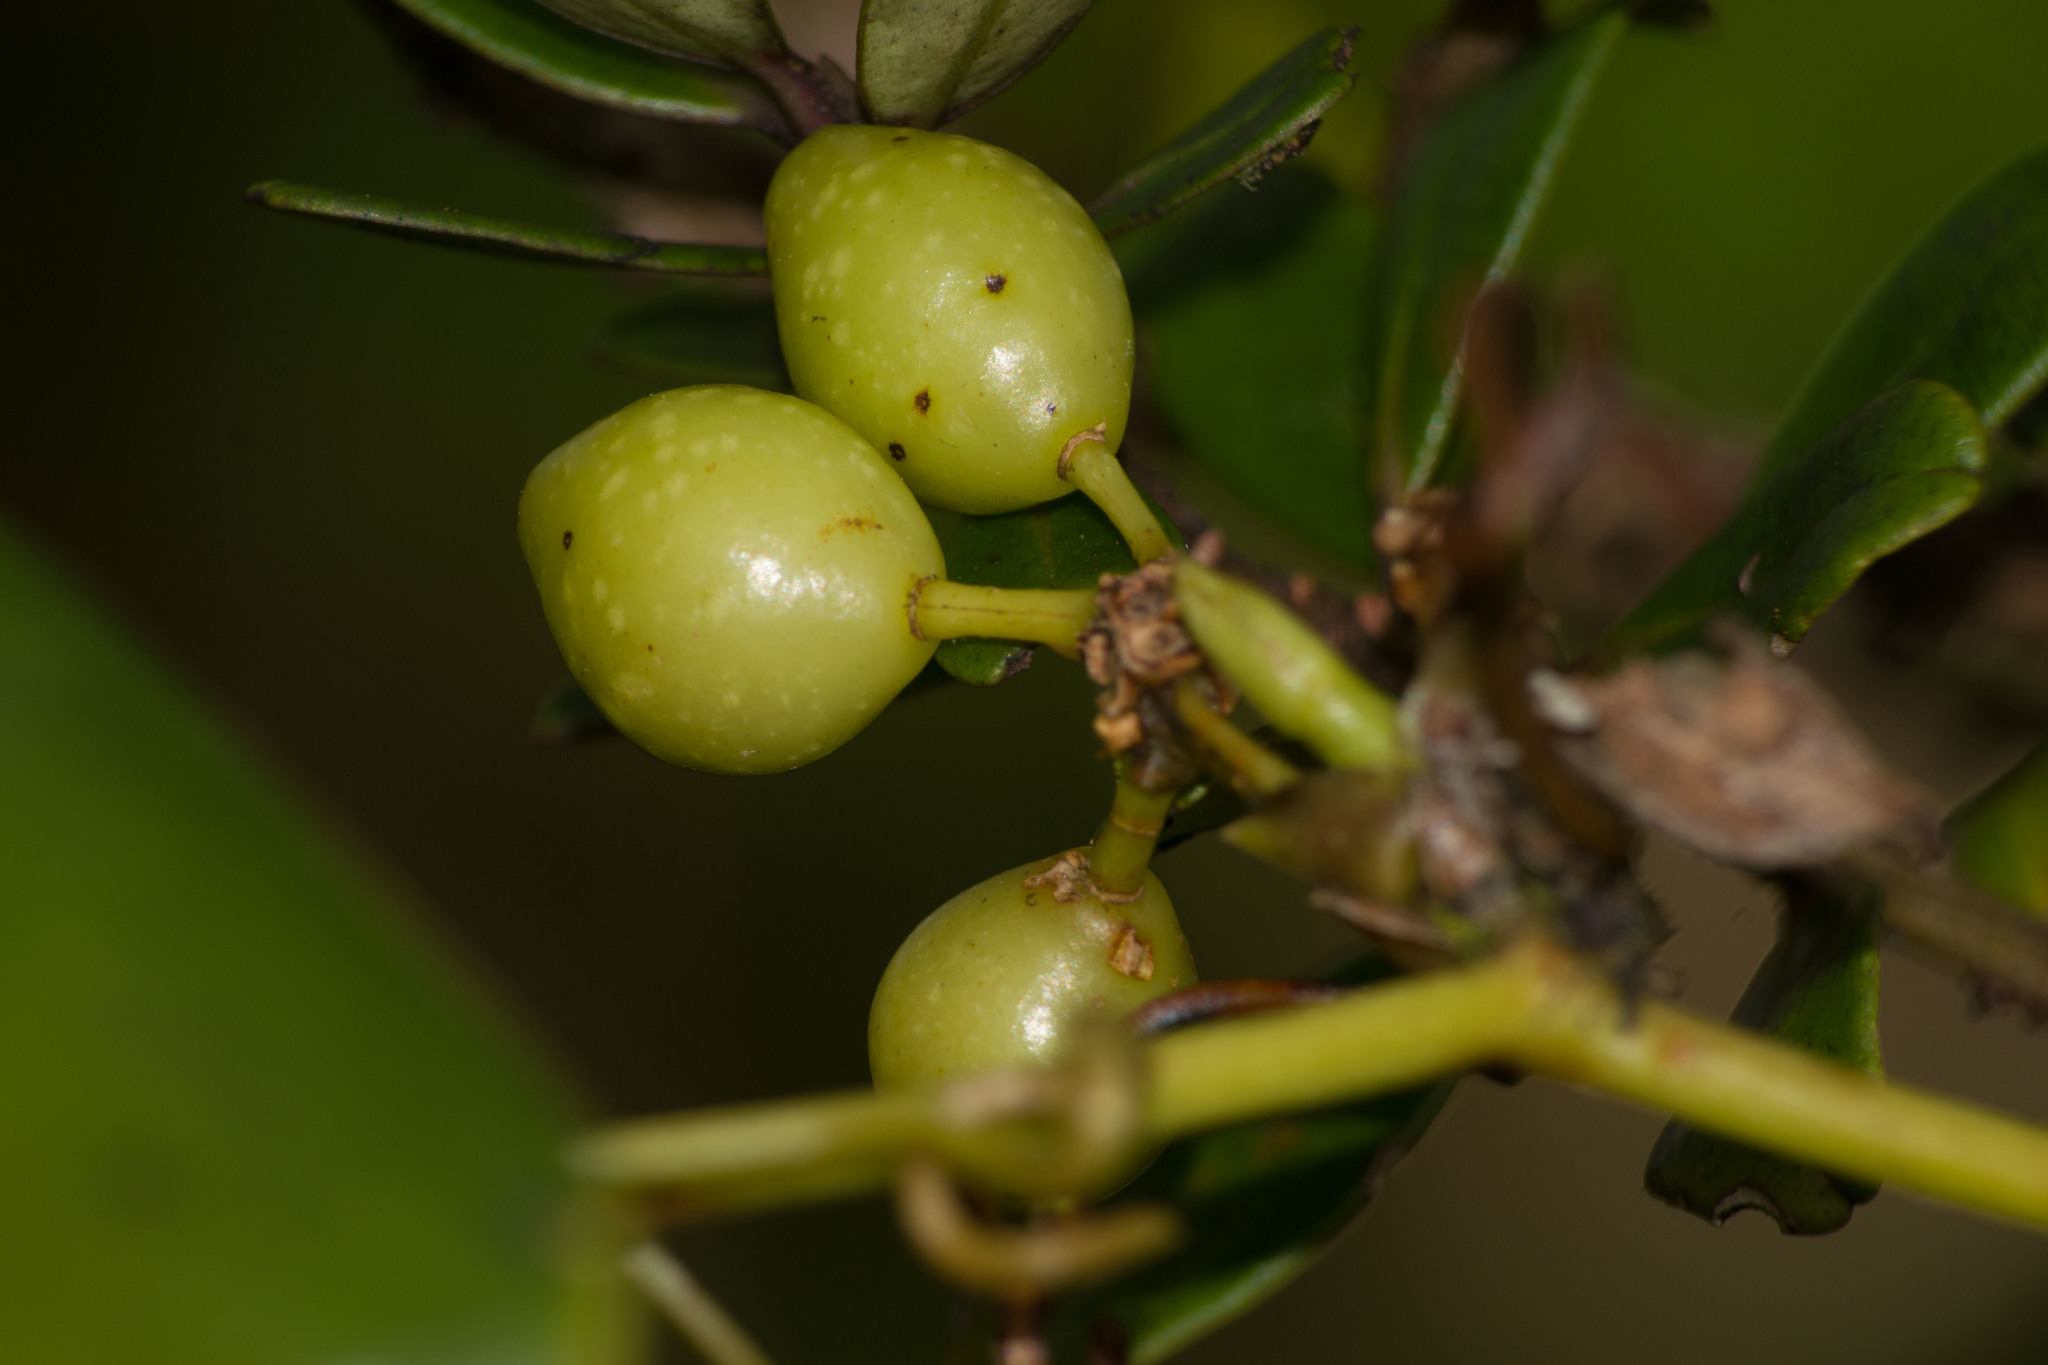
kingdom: Plantae
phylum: Tracheophyta
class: Liliopsida
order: Liliales
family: Smilacaceae
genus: Smilax
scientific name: Smilax melastomifolia
